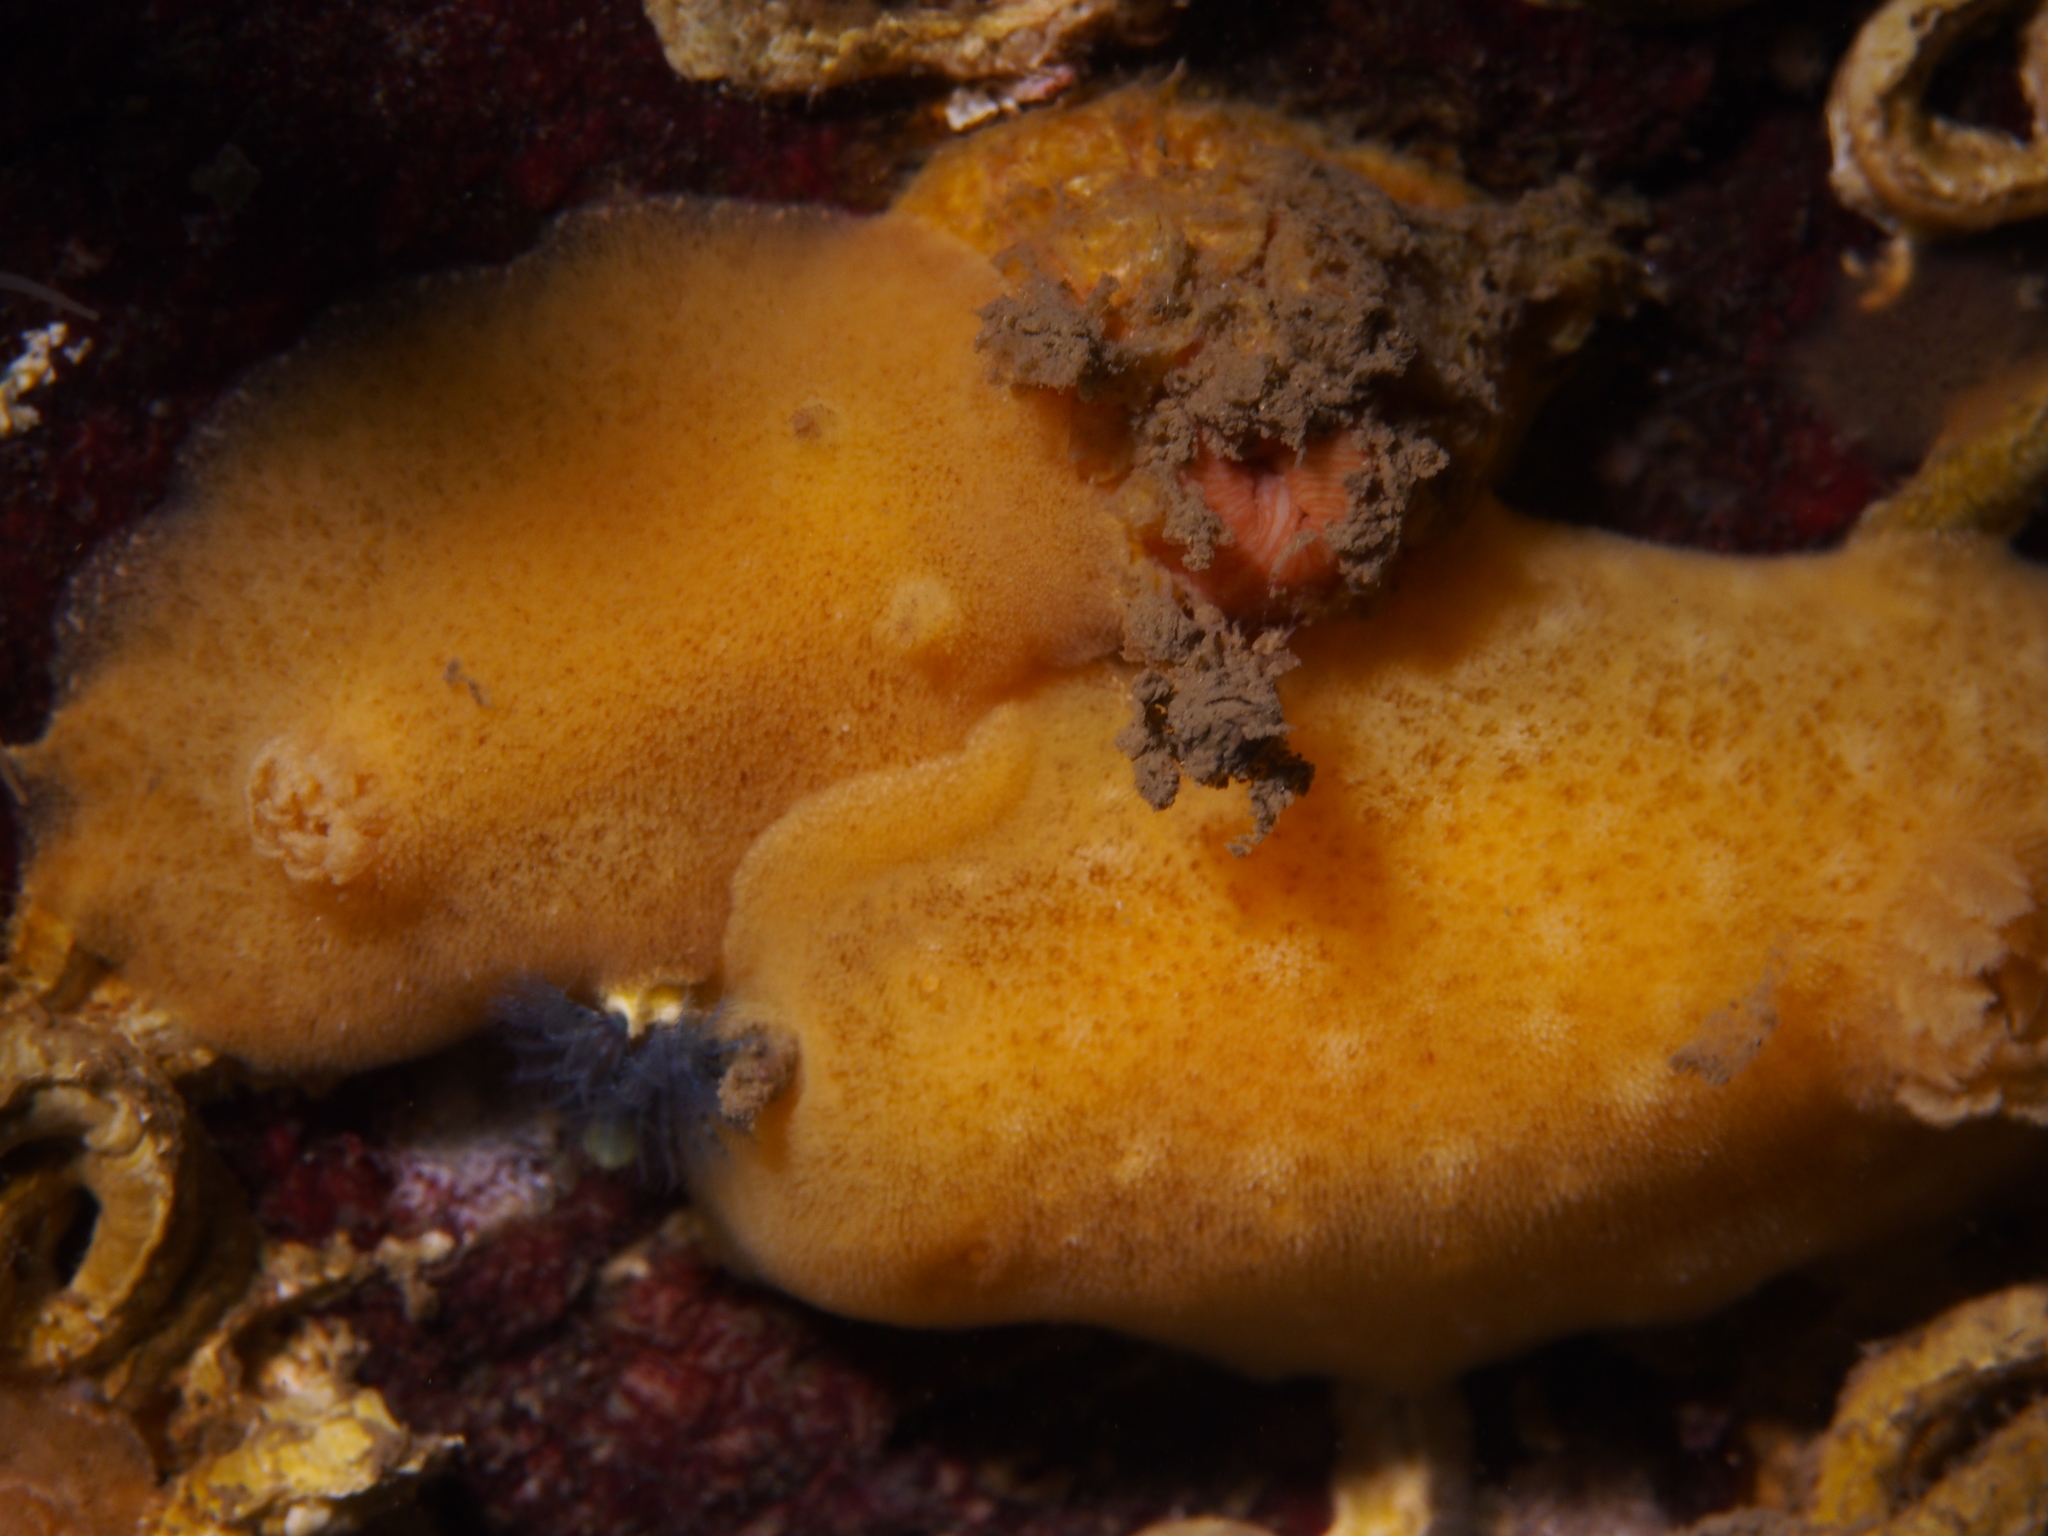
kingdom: Animalia
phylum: Mollusca
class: Gastropoda
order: Nudibranchia
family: Discodorididae
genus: Jorunna
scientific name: Jorunna tomentosa
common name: Grey sea slug
